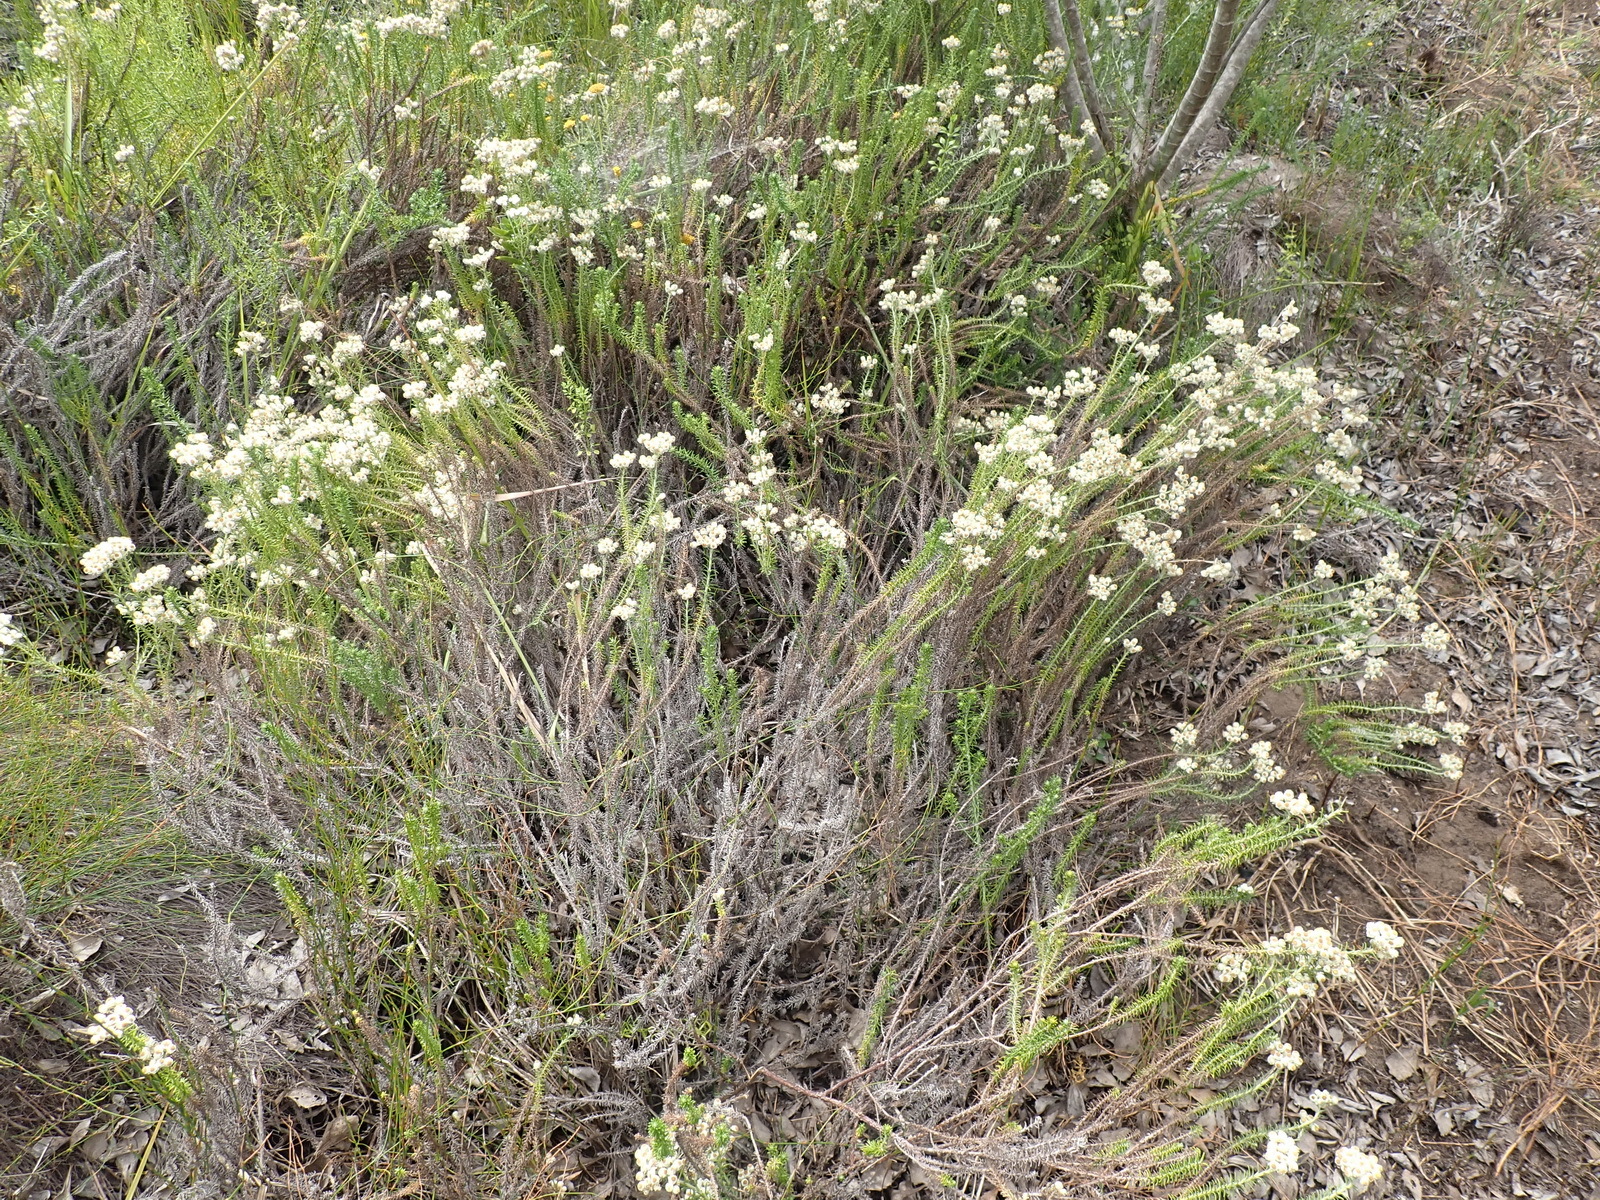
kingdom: Plantae
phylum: Tracheophyta
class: Magnoliopsida
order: Asterales
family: Asteraceae
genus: Helichrysum
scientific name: Helichrysum teretifolium
